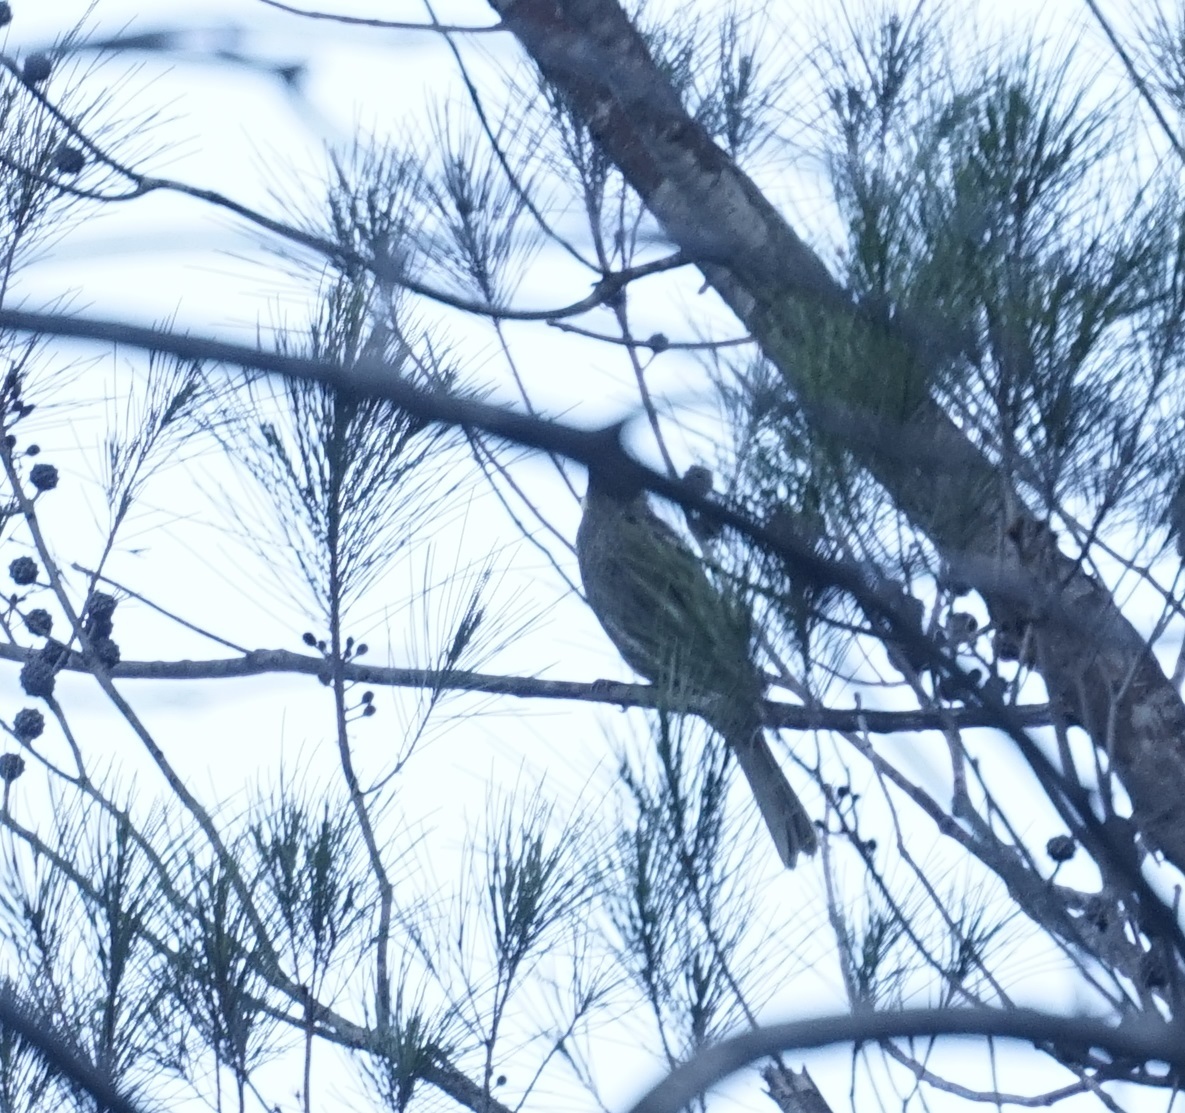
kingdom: Animalia
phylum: Chordata
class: Aves
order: Passeriformes
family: Meliphagidae
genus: Meliphaga
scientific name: Meliphaga lewinii
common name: Lewin's honeyeater
